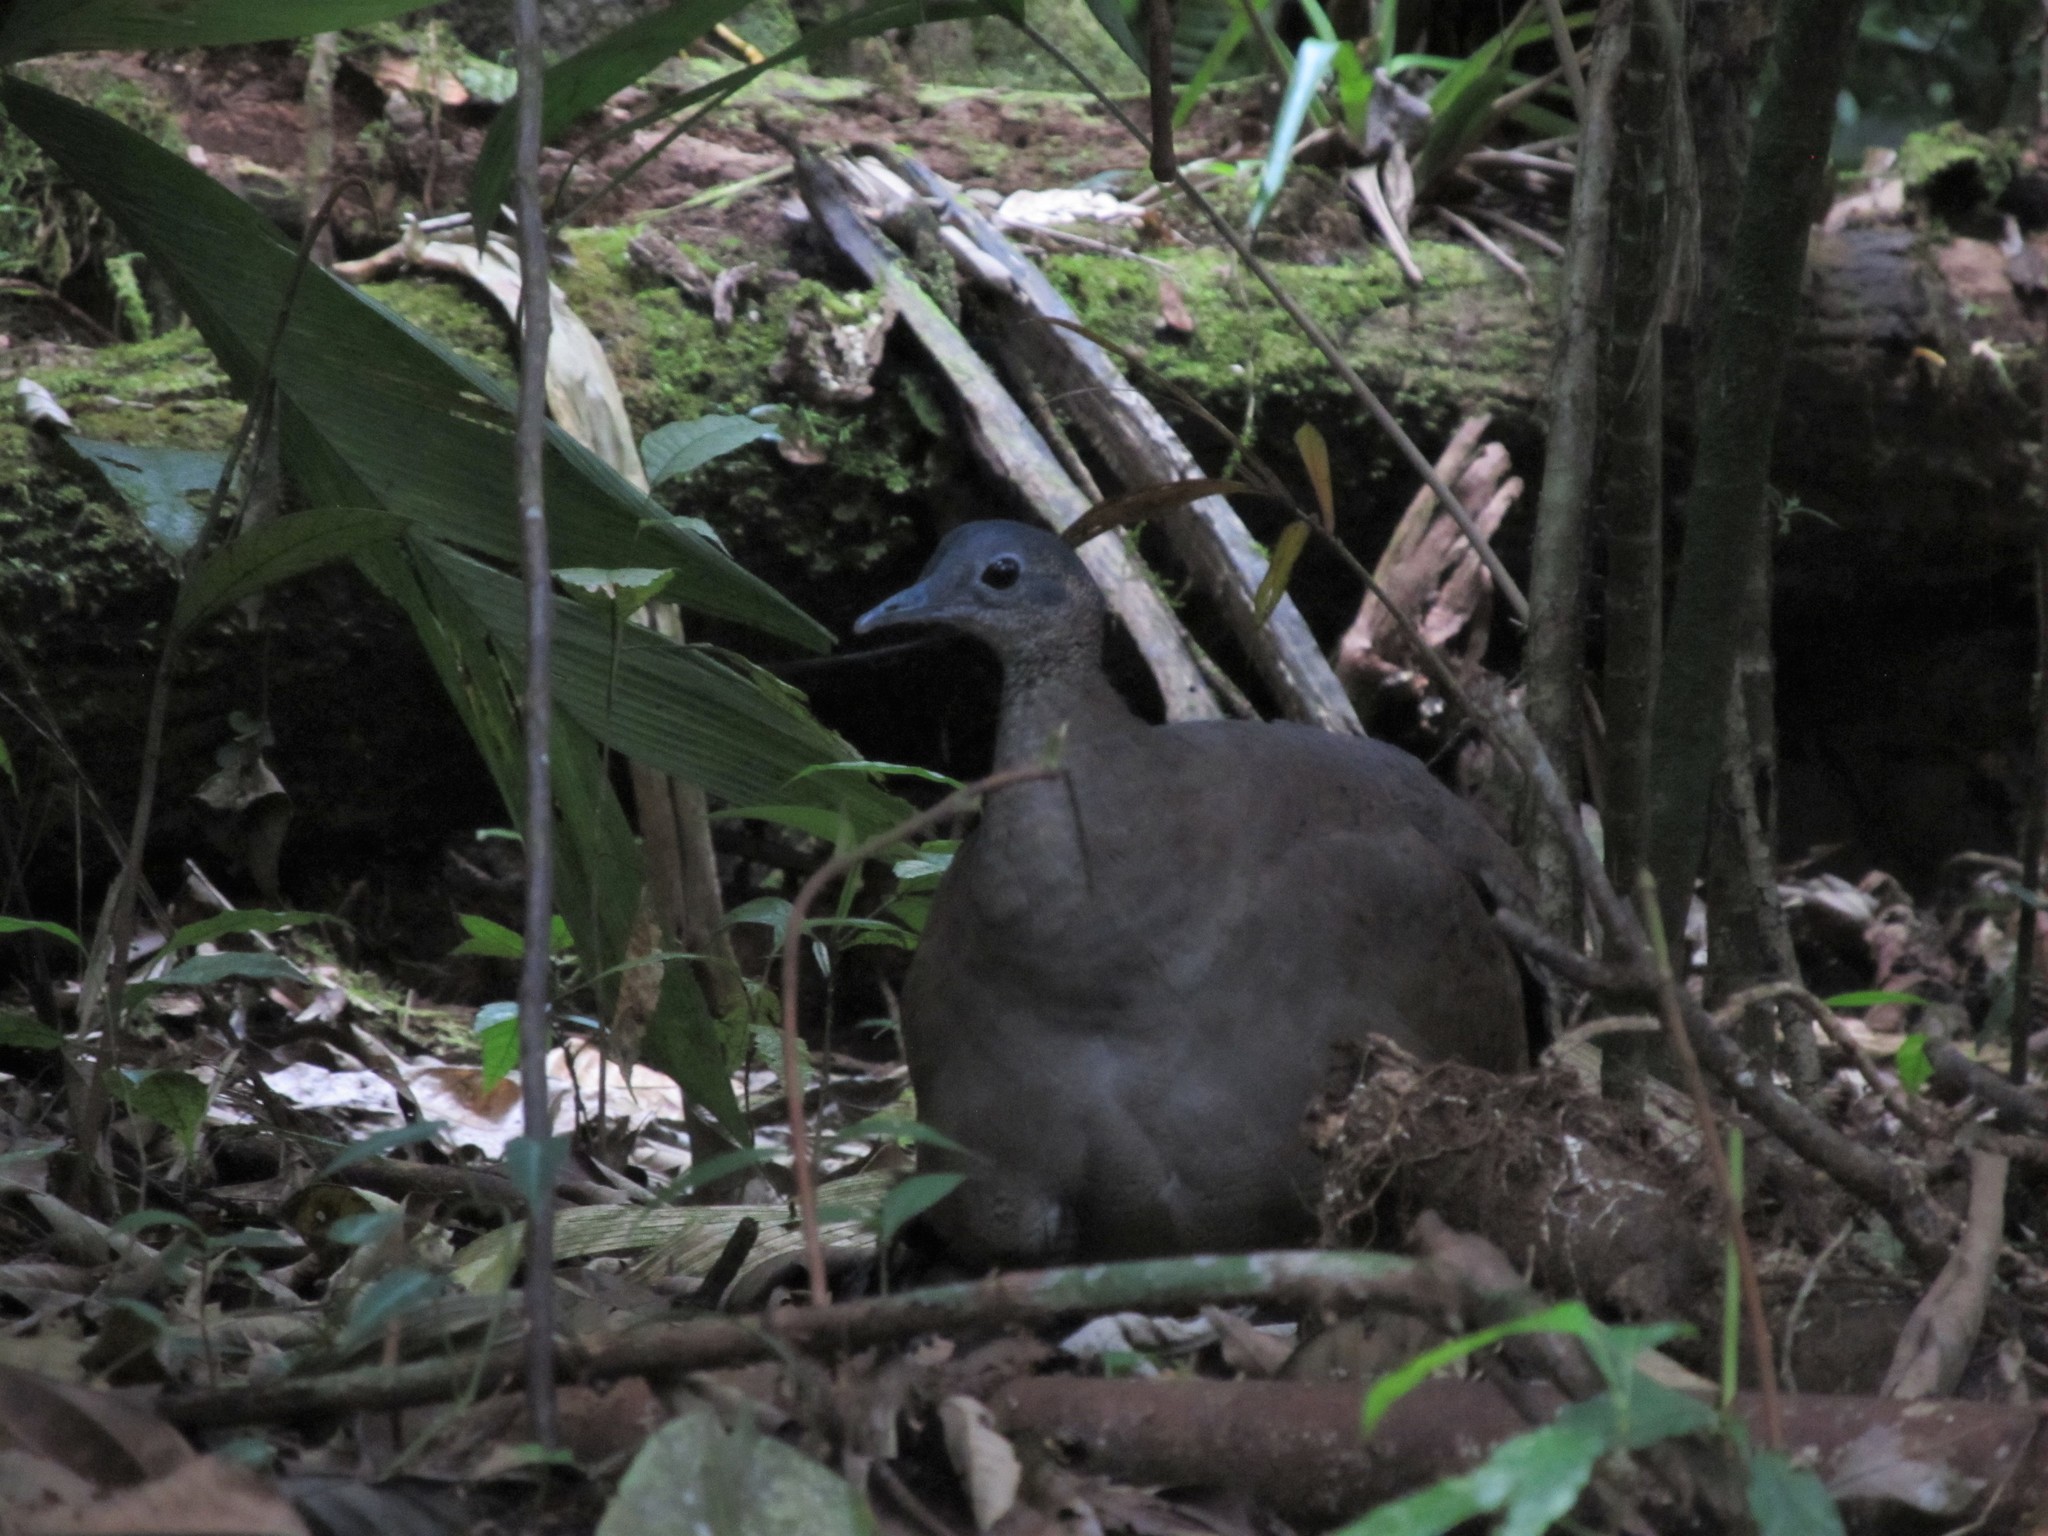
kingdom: Animalia
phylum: Chordata
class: Aves
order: Tinamiformes
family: Tinamidae
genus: Tinamus
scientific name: Tinamus major
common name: Great tinamou
